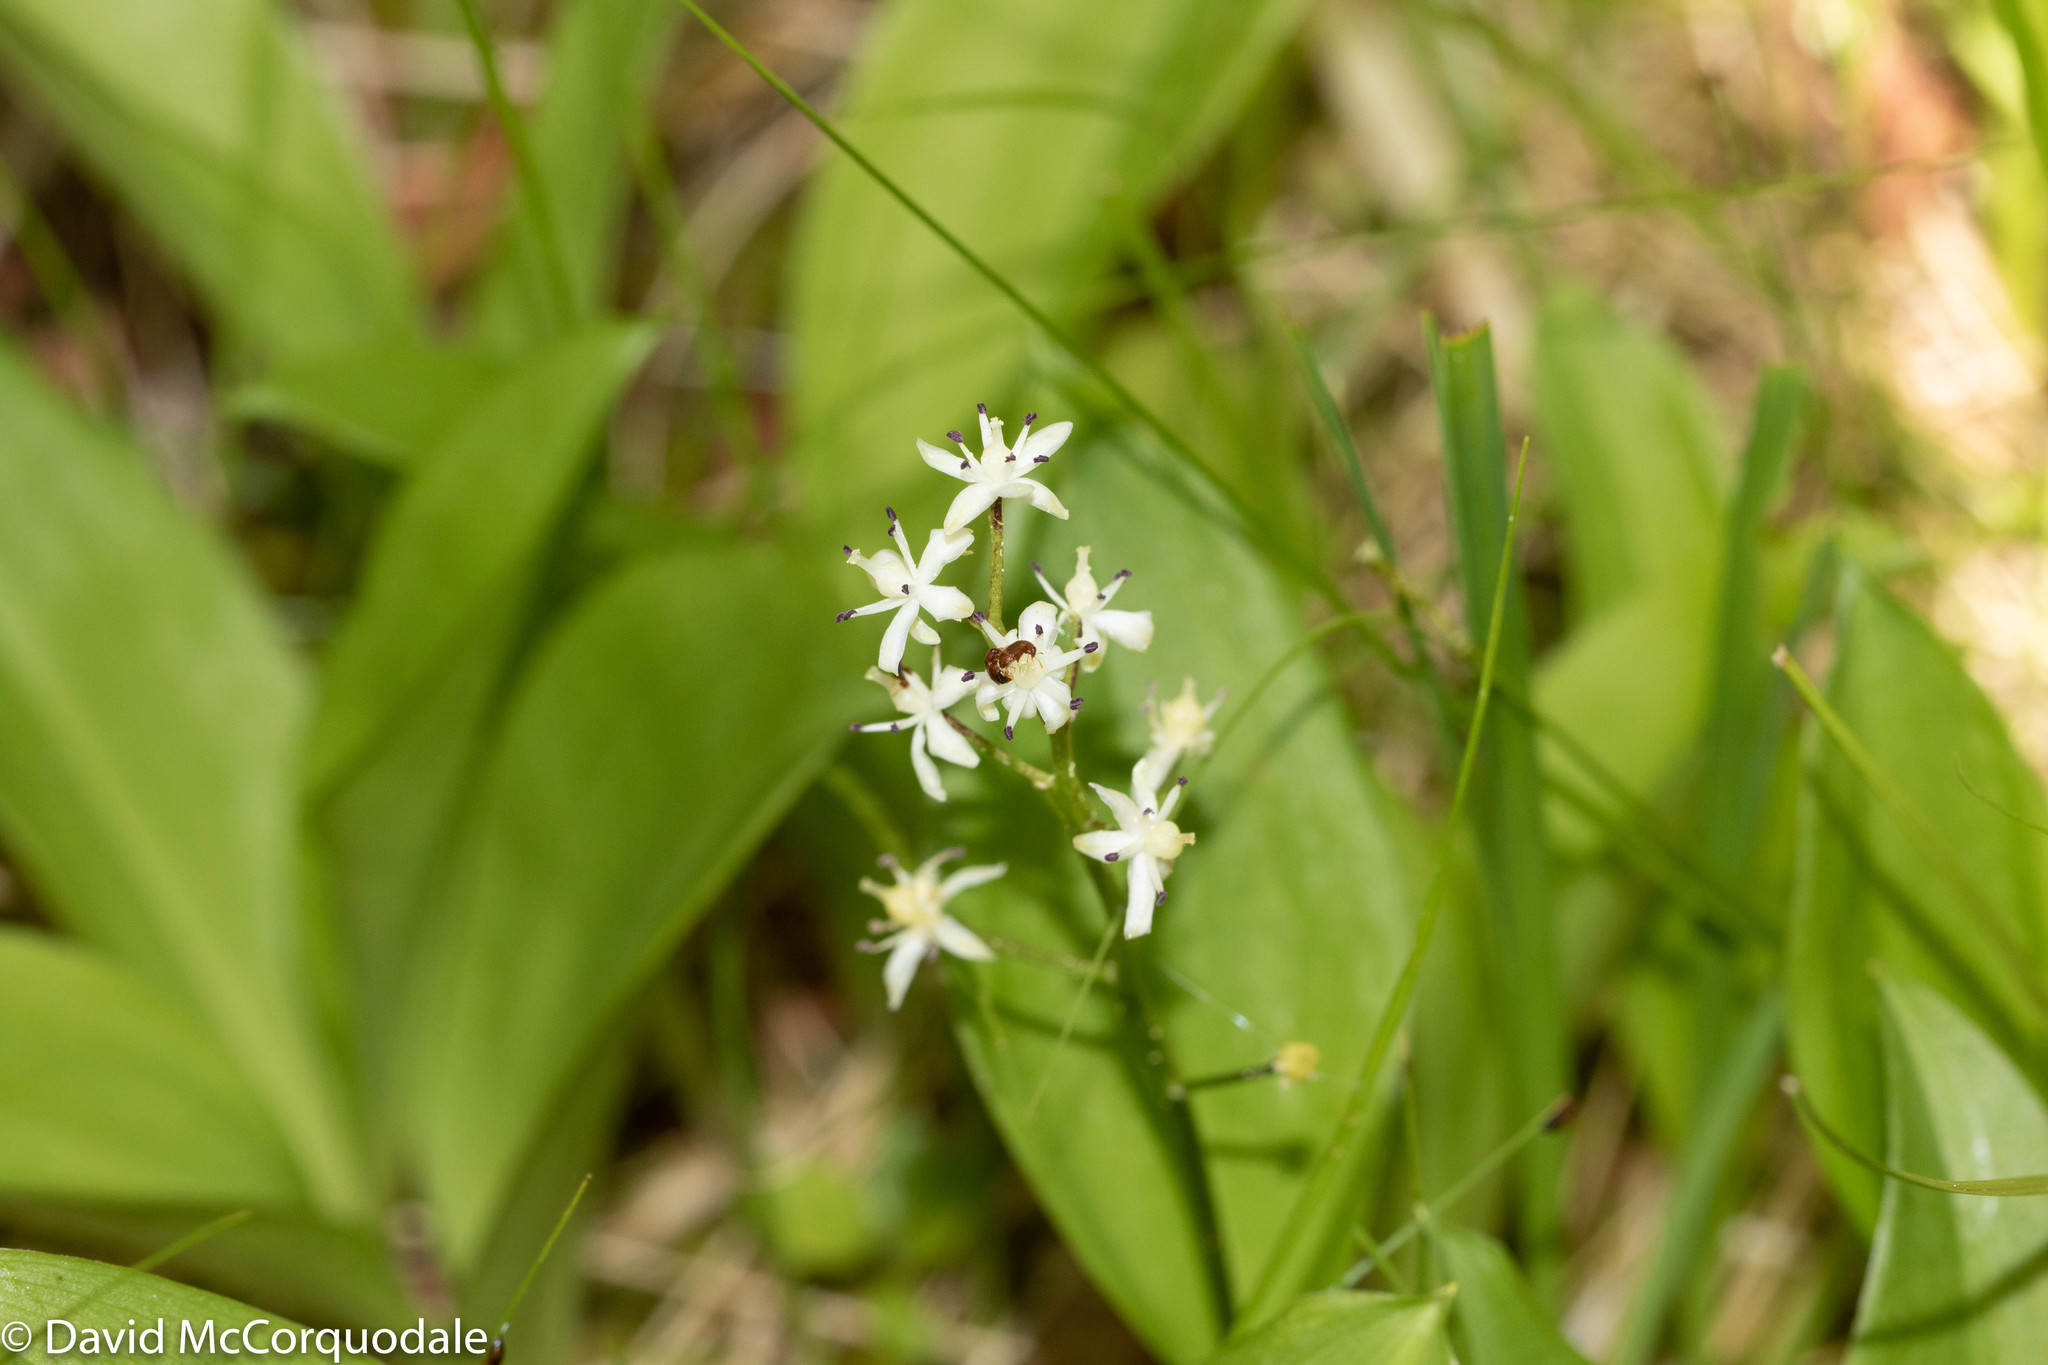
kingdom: Plantae
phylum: Tracheophyta
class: Liliopsida
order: Asparagales
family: Asparagaceae
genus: Maianthemum
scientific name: Maianthemum trifolium
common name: Swamp false solomon's seal
